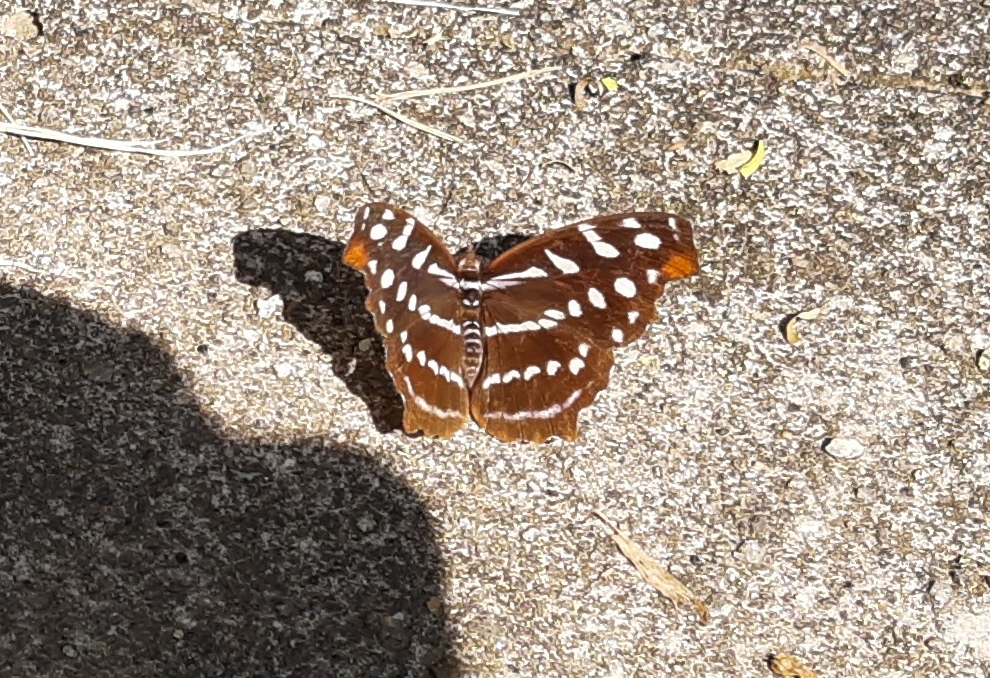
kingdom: Animalia
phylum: Arthropoda
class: Insecta
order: Lepidoptera
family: Nymphalidae
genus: Myscelia
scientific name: Myscelia orsis
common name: Orsis bluewing
